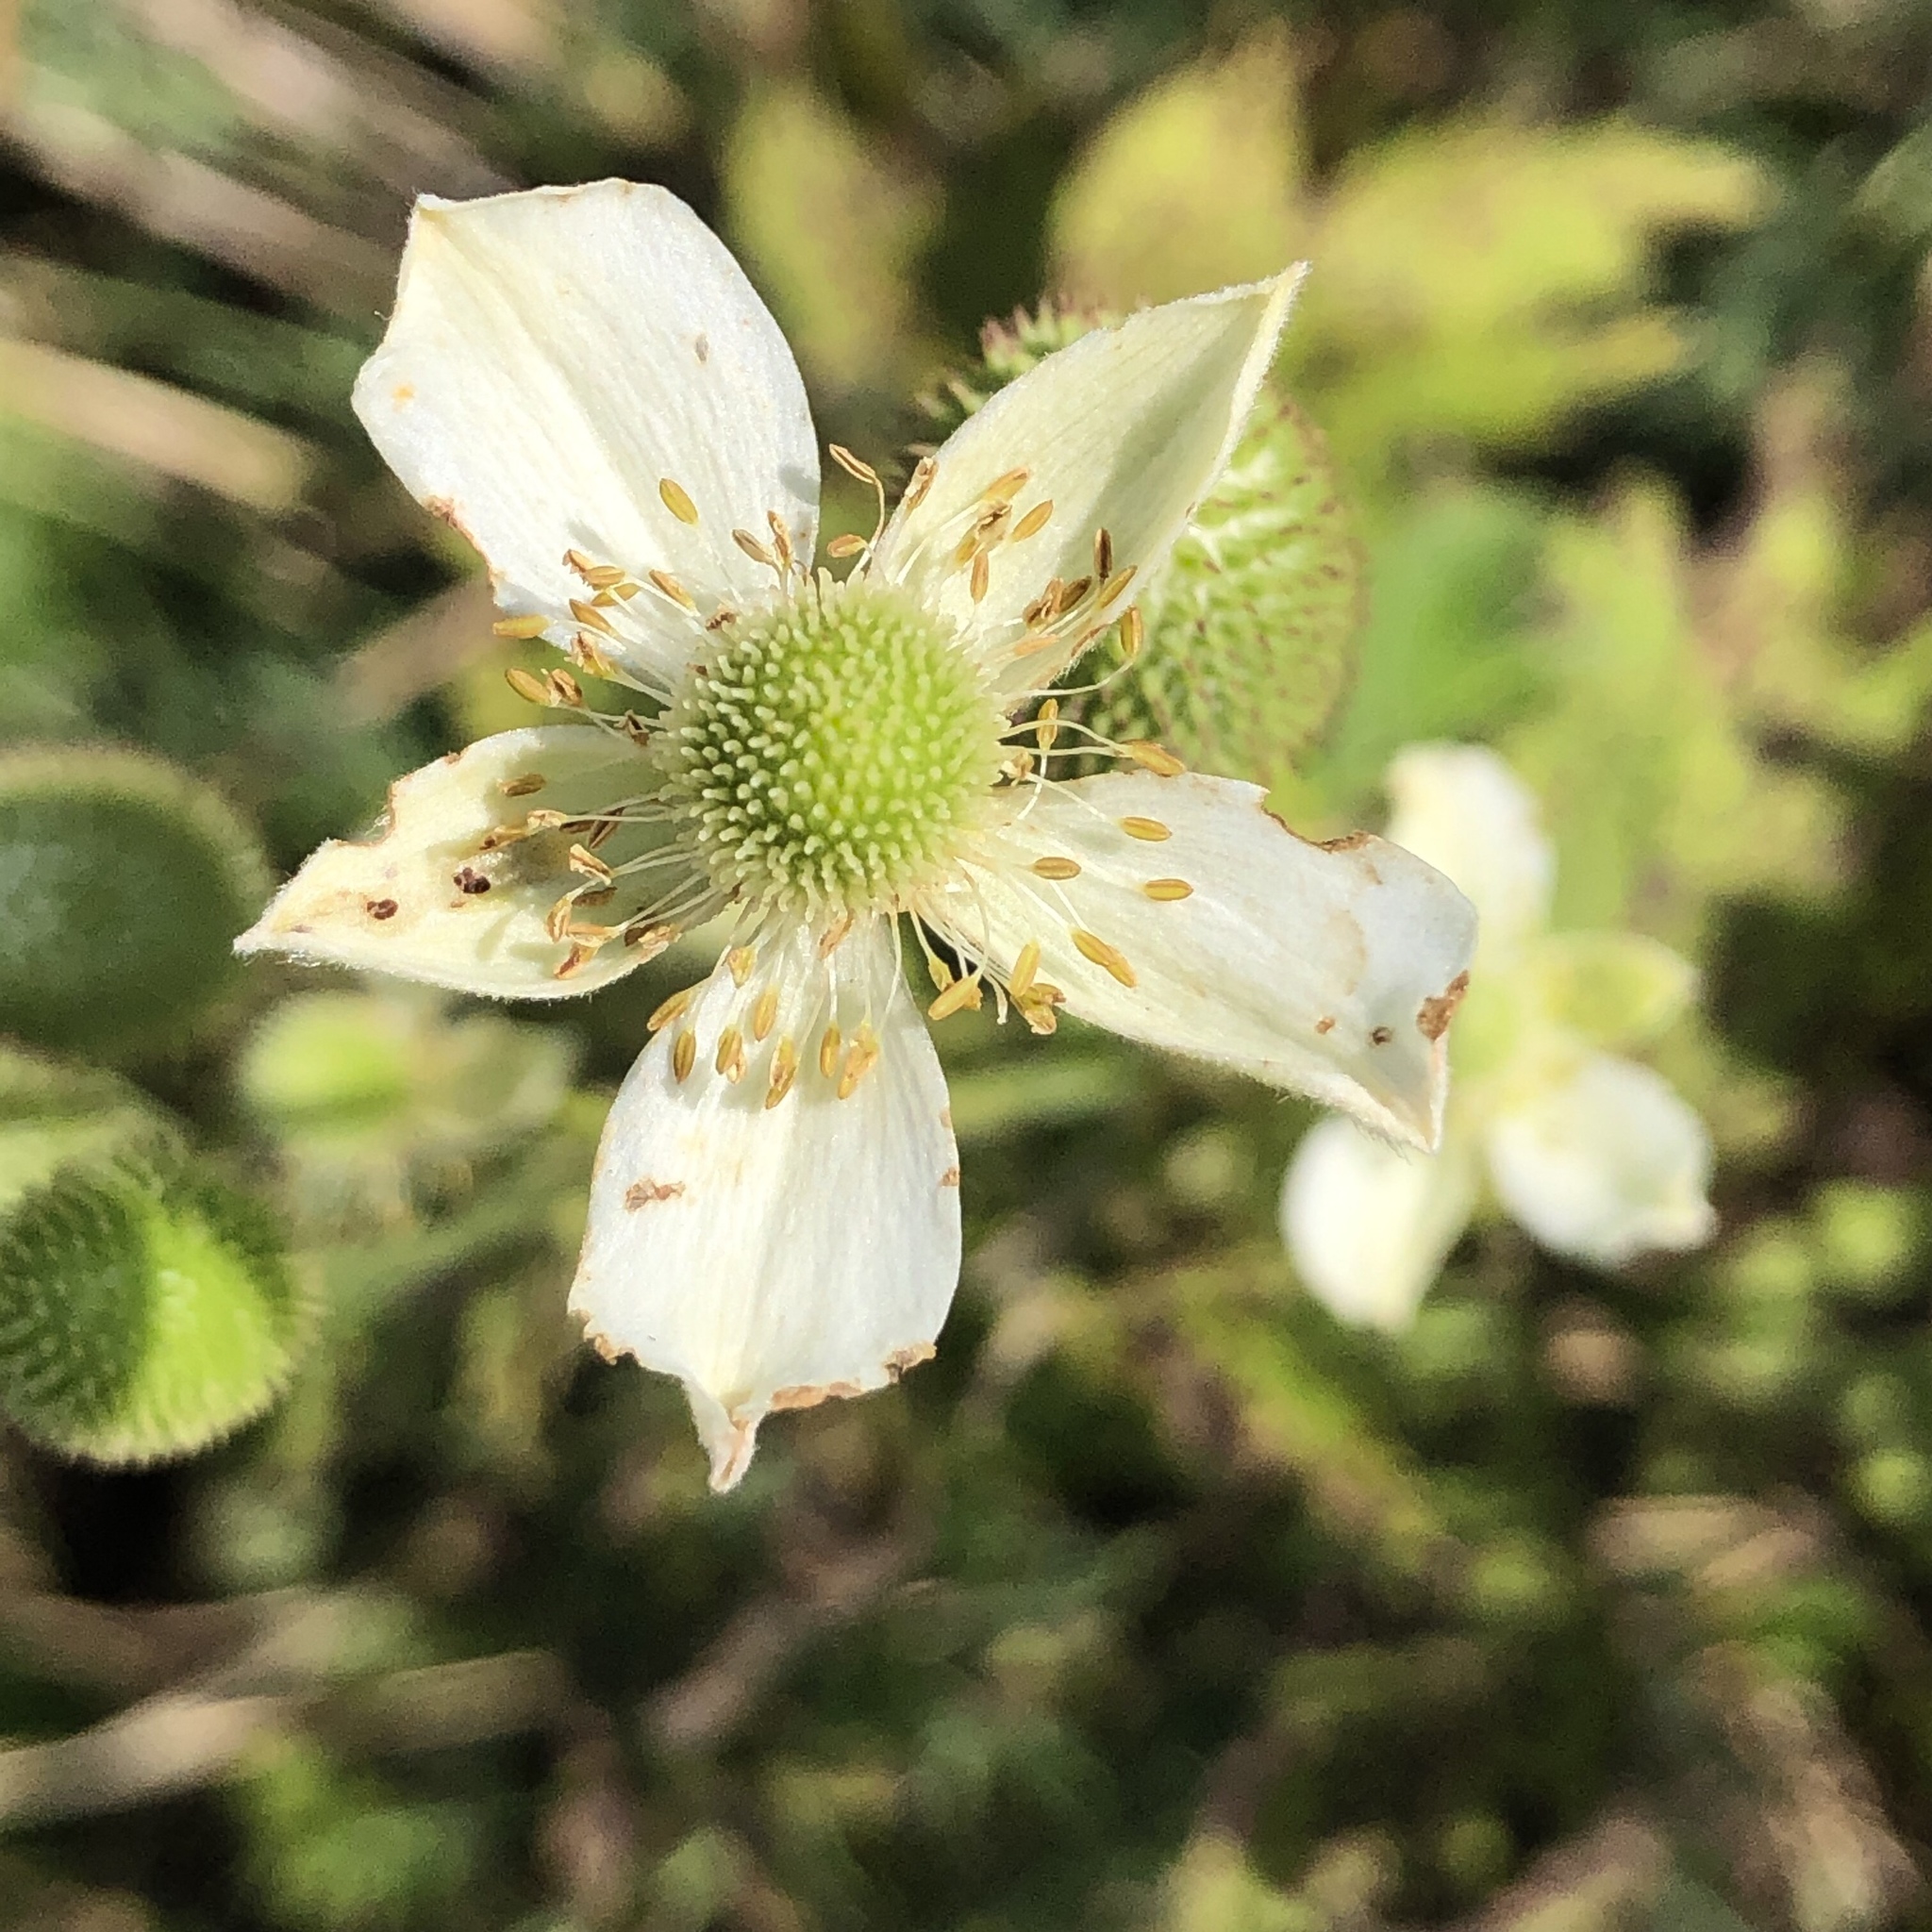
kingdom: Plantae
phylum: Tracheophyta
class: Magnoliopsida
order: Ranunculales
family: Ranunculaceae
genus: Anemone
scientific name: Anemone virginiana
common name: Tall anemone
